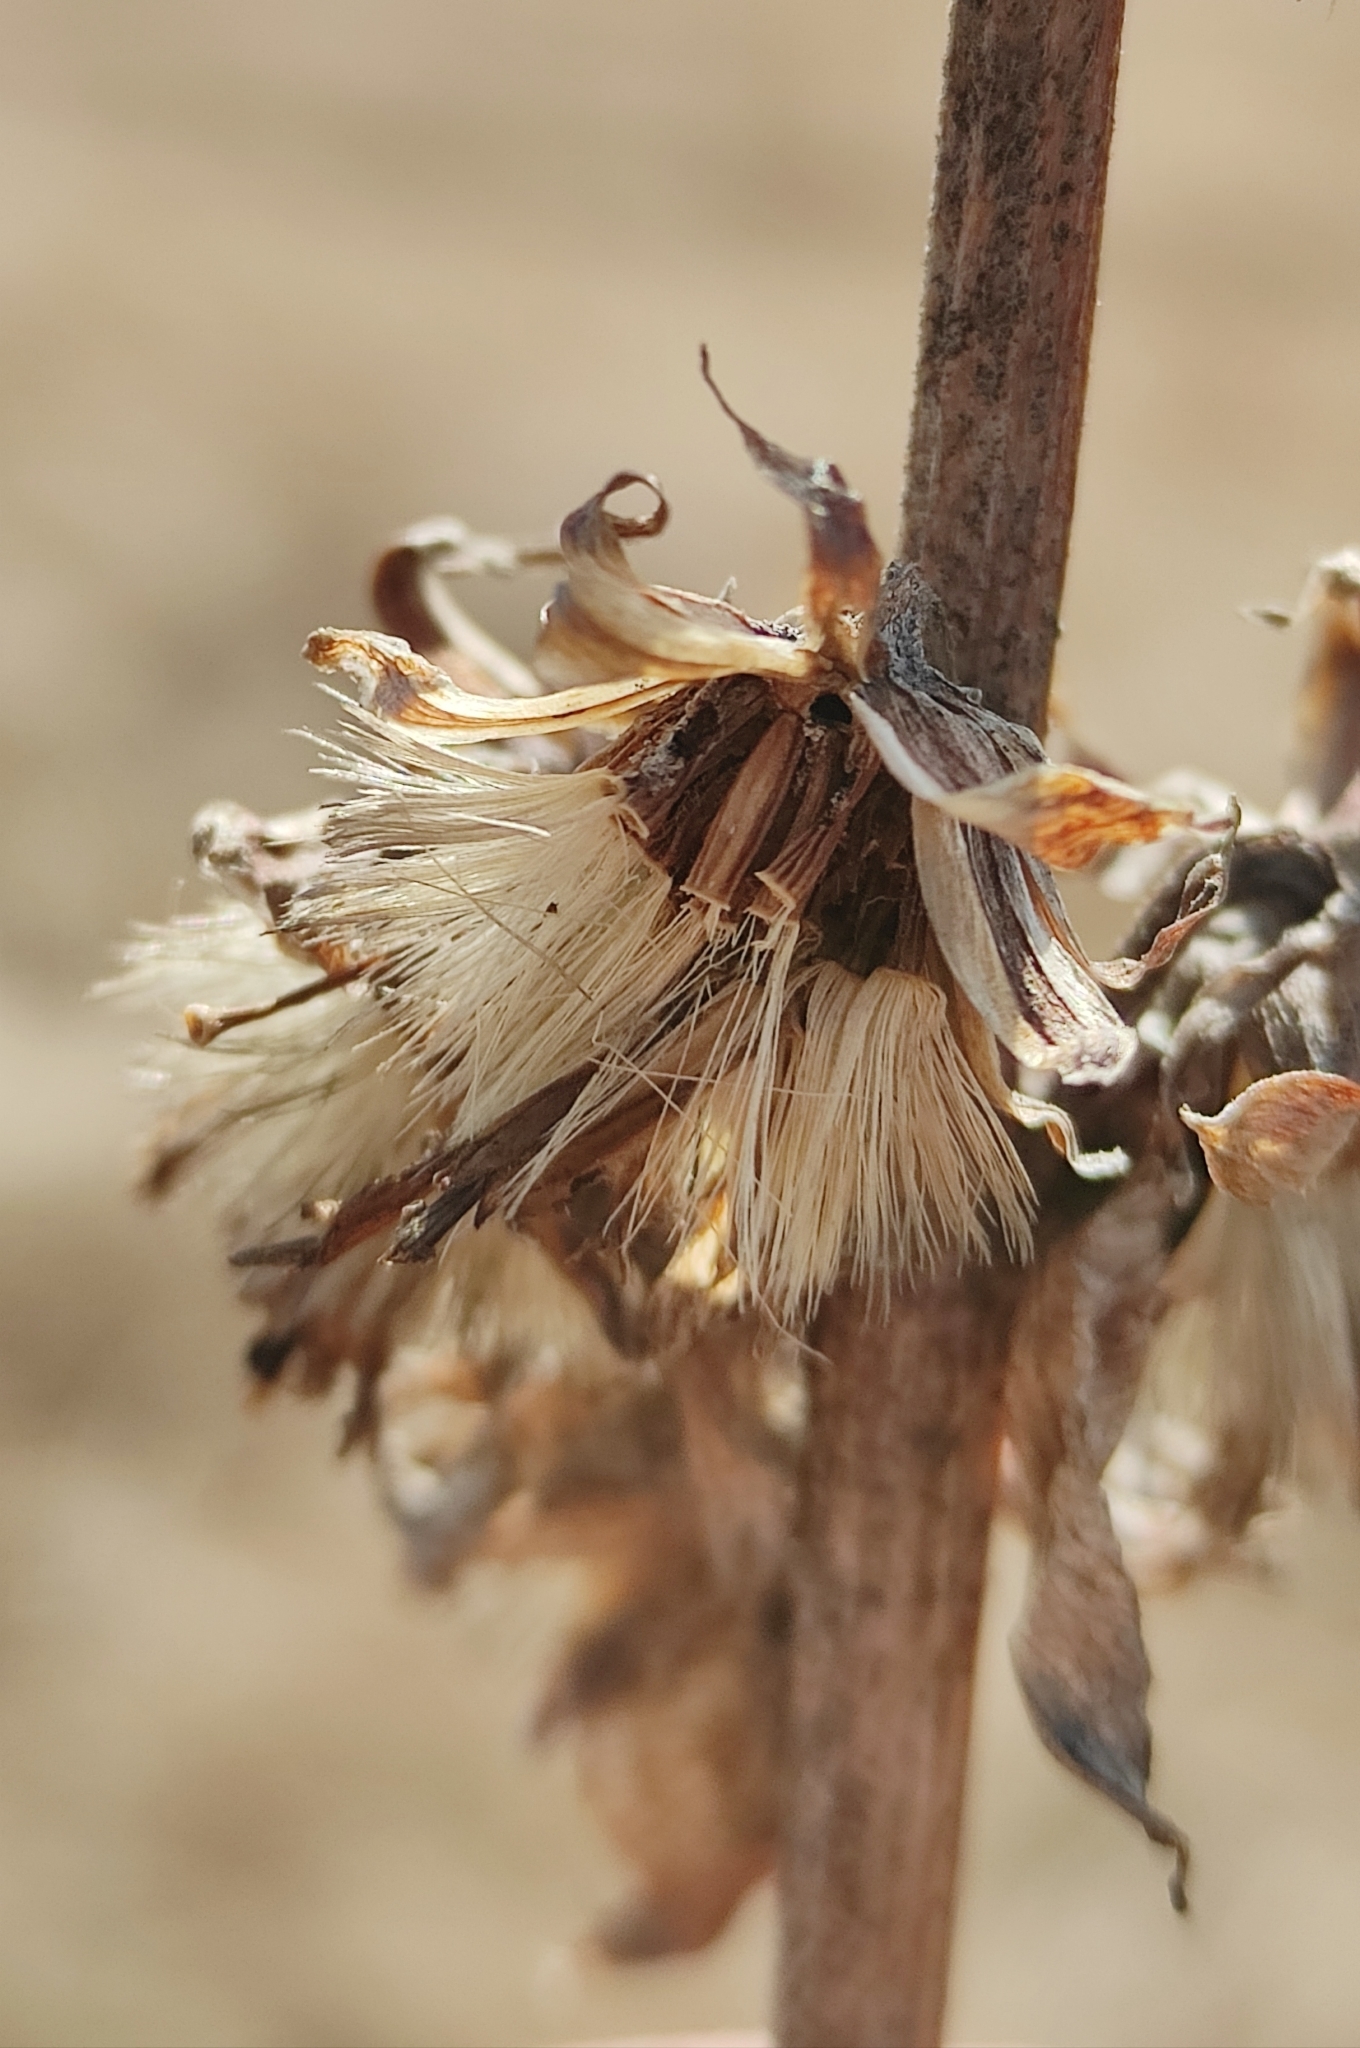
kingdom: Plantae
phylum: Tracheophyta
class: Magnoliopsida
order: Asterales
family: Asteraceae
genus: Ligularia
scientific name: Ligularia sibirica
